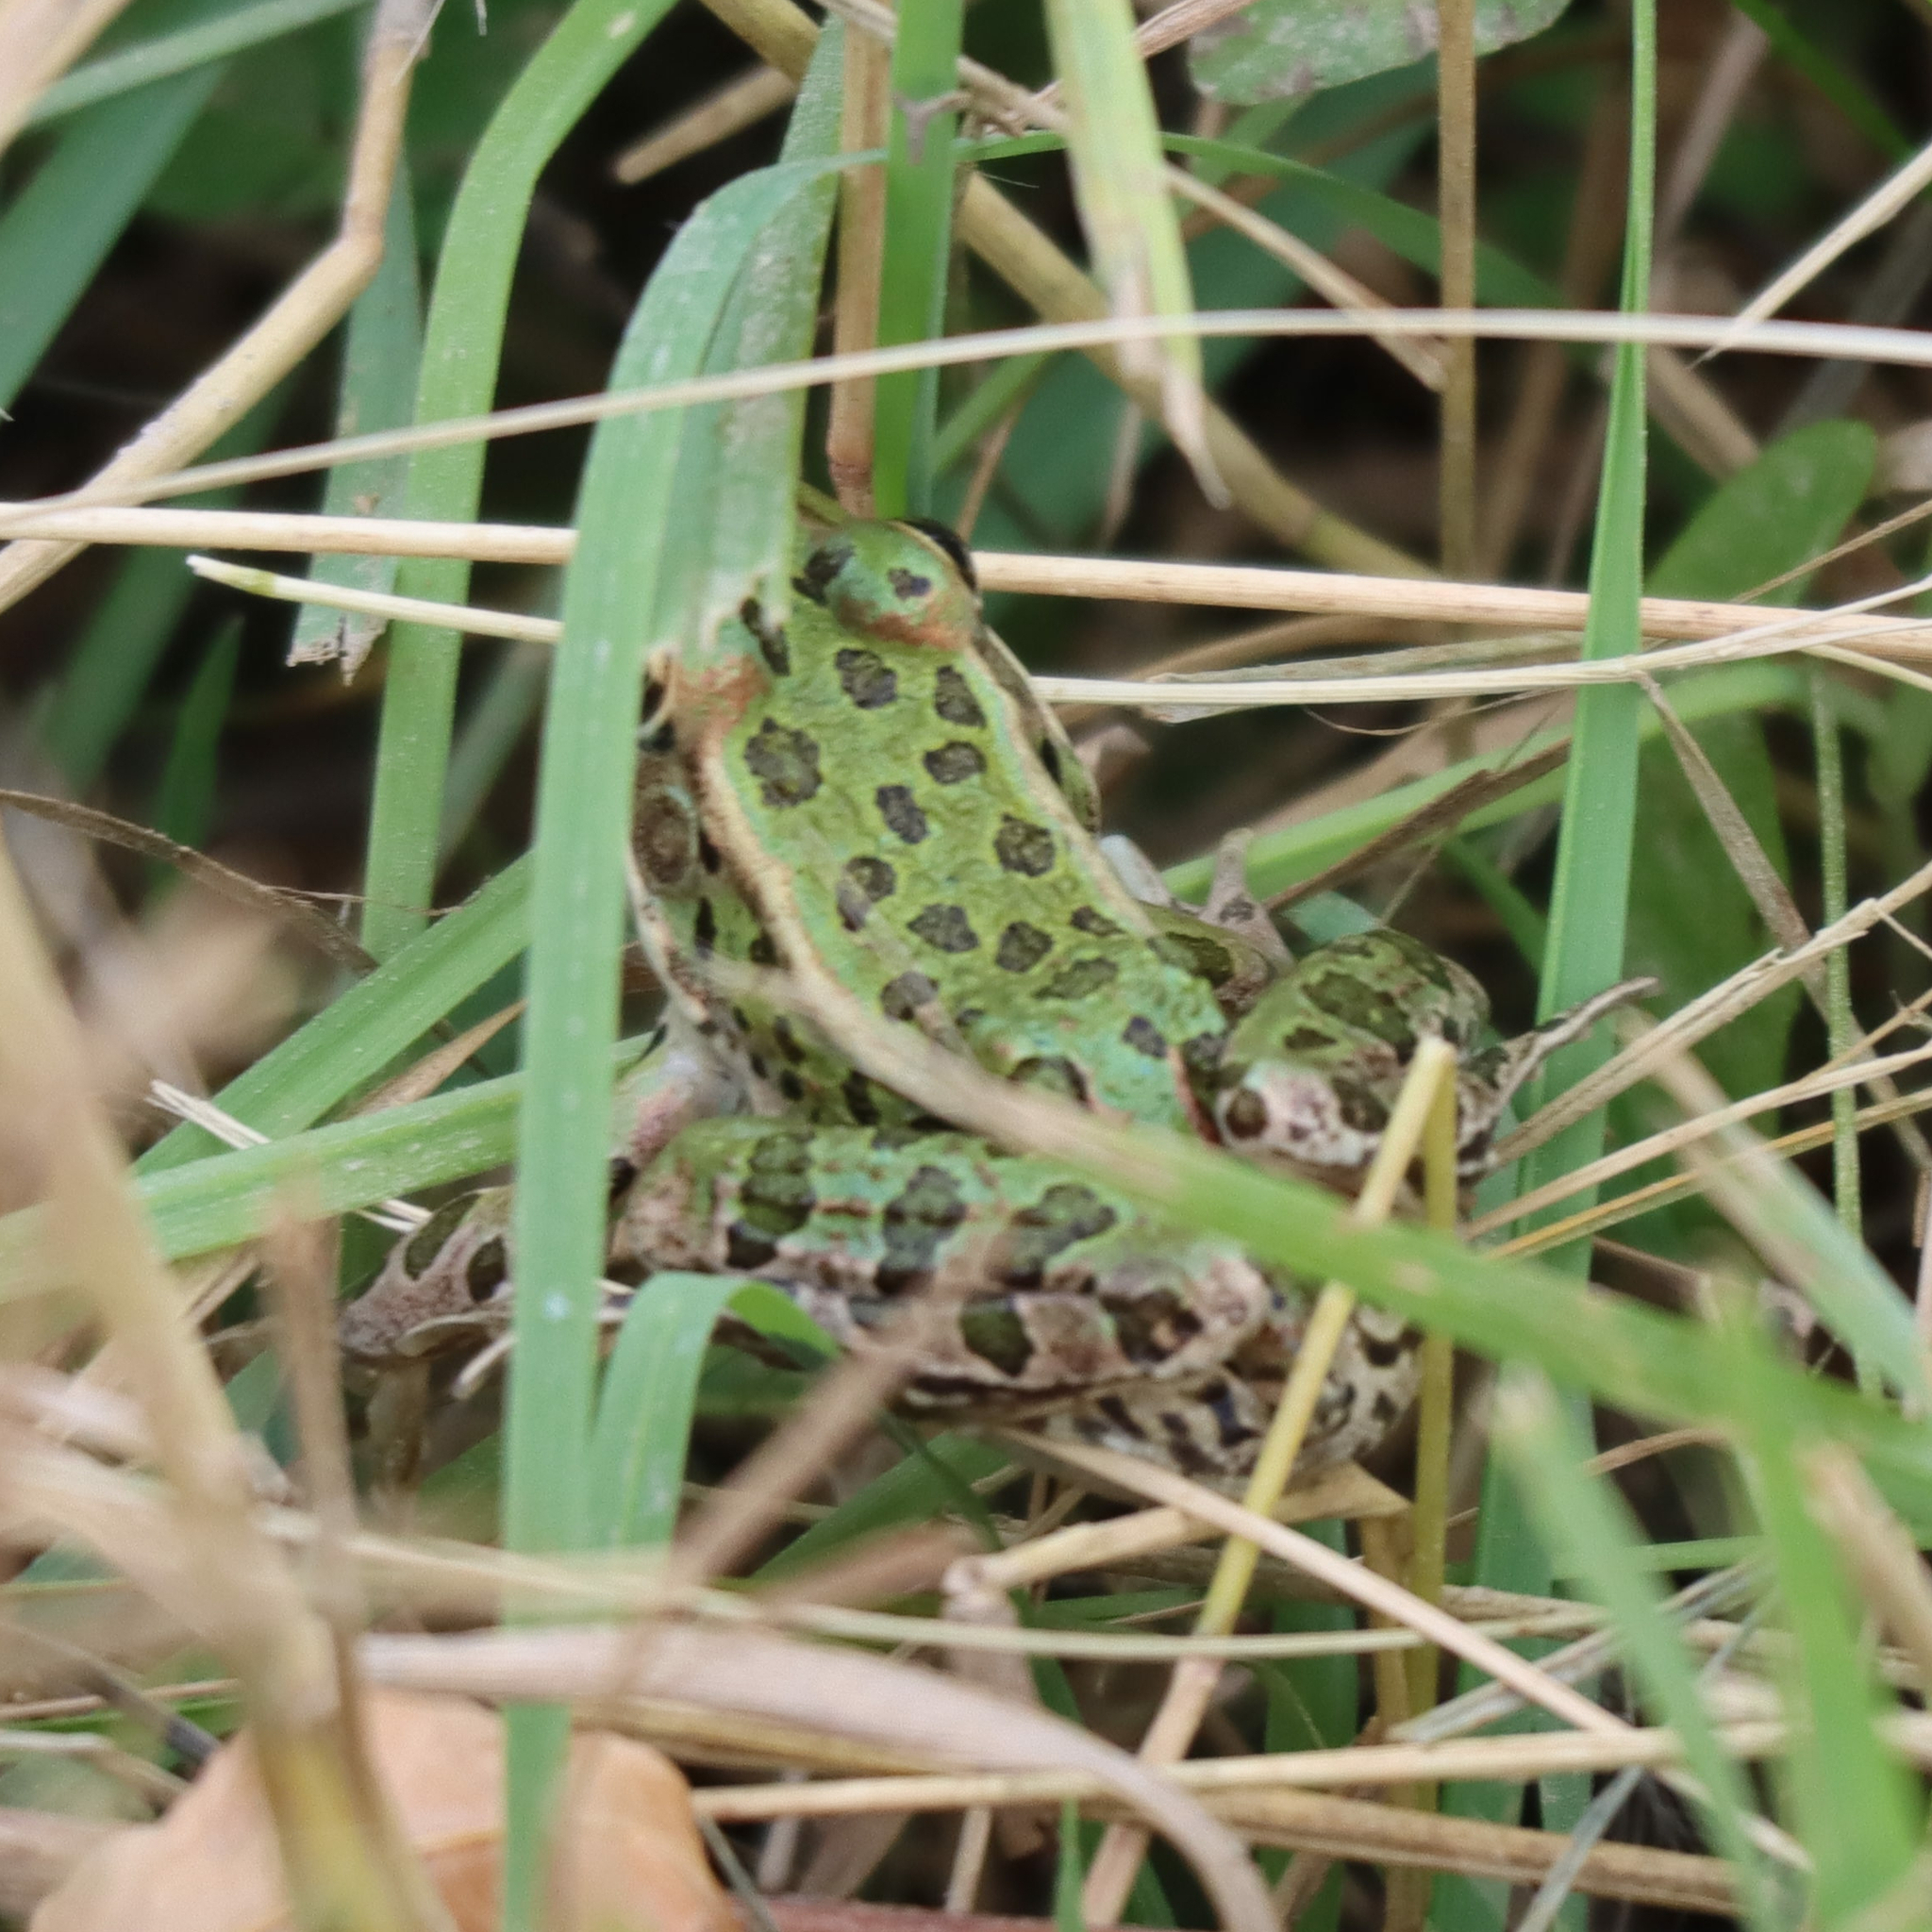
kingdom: Animalia
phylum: Chordata
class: Amphibia
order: Anura
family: Ranidae
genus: Lithobates
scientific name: Lithobates pipiens
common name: Northern leopard frog
